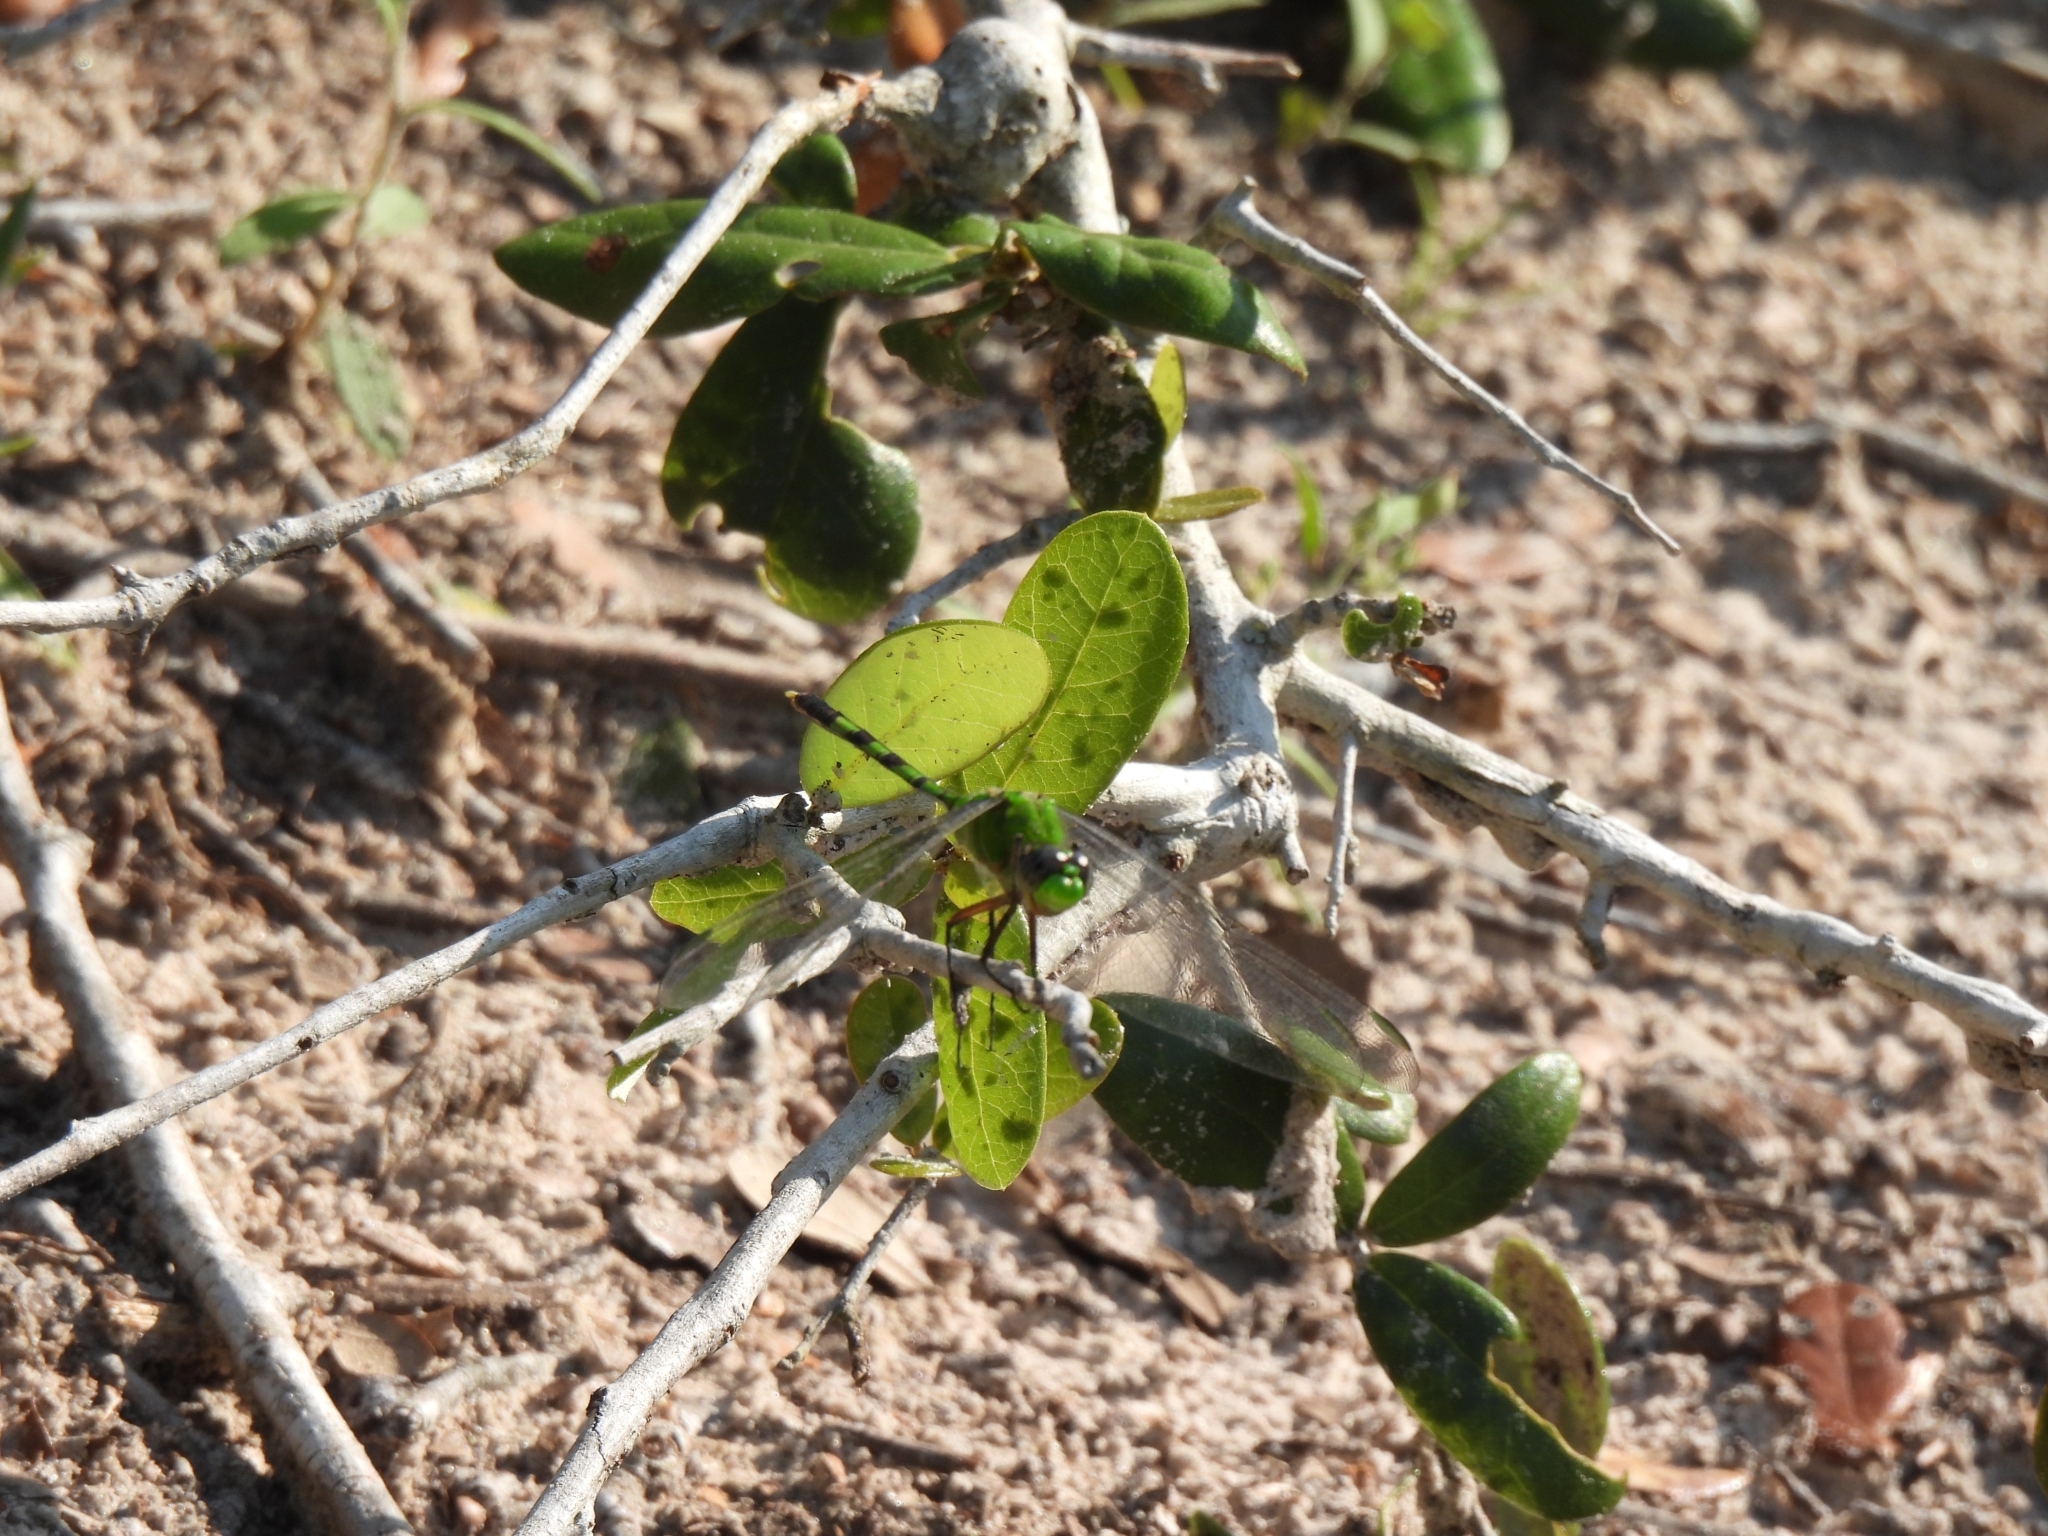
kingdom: Animalia
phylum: Arthropoda
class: Insecta
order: Odonata
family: Libellulidae
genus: Erythemis
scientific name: Erythemis vesiculosa
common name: Great pondhawk
